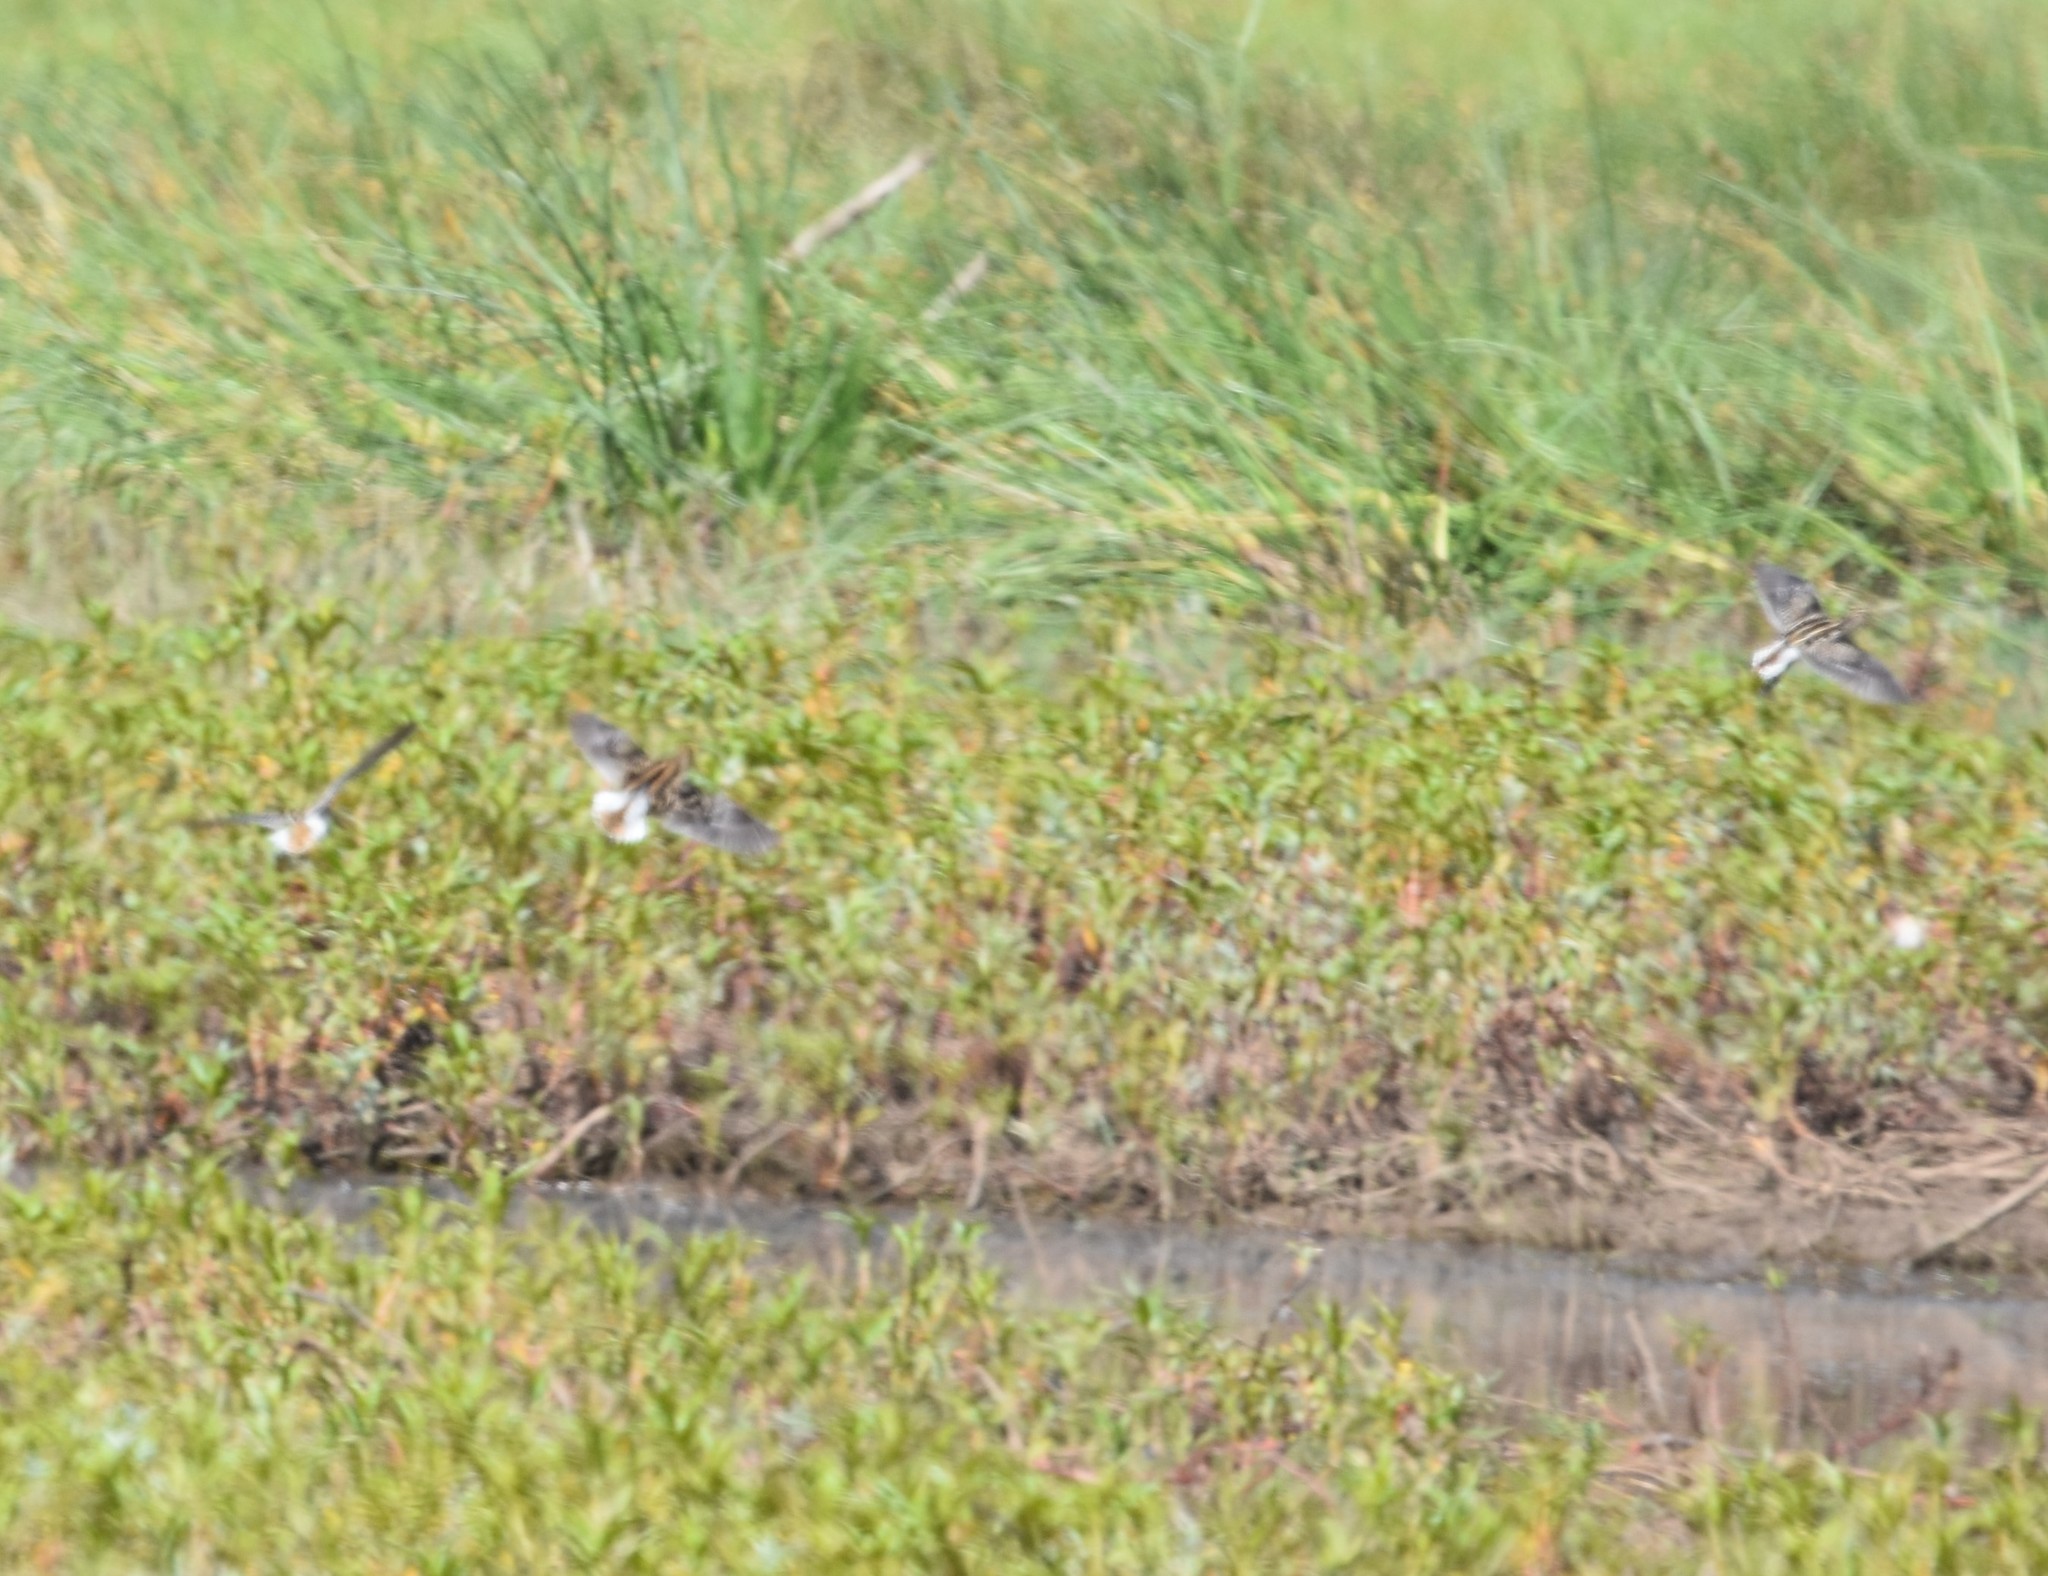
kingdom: Animalia
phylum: Chordata
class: Aves
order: Charadriiformes
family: Scolopacidae
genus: Gallinago
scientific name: Gallinago nigripennis
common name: African snipe
